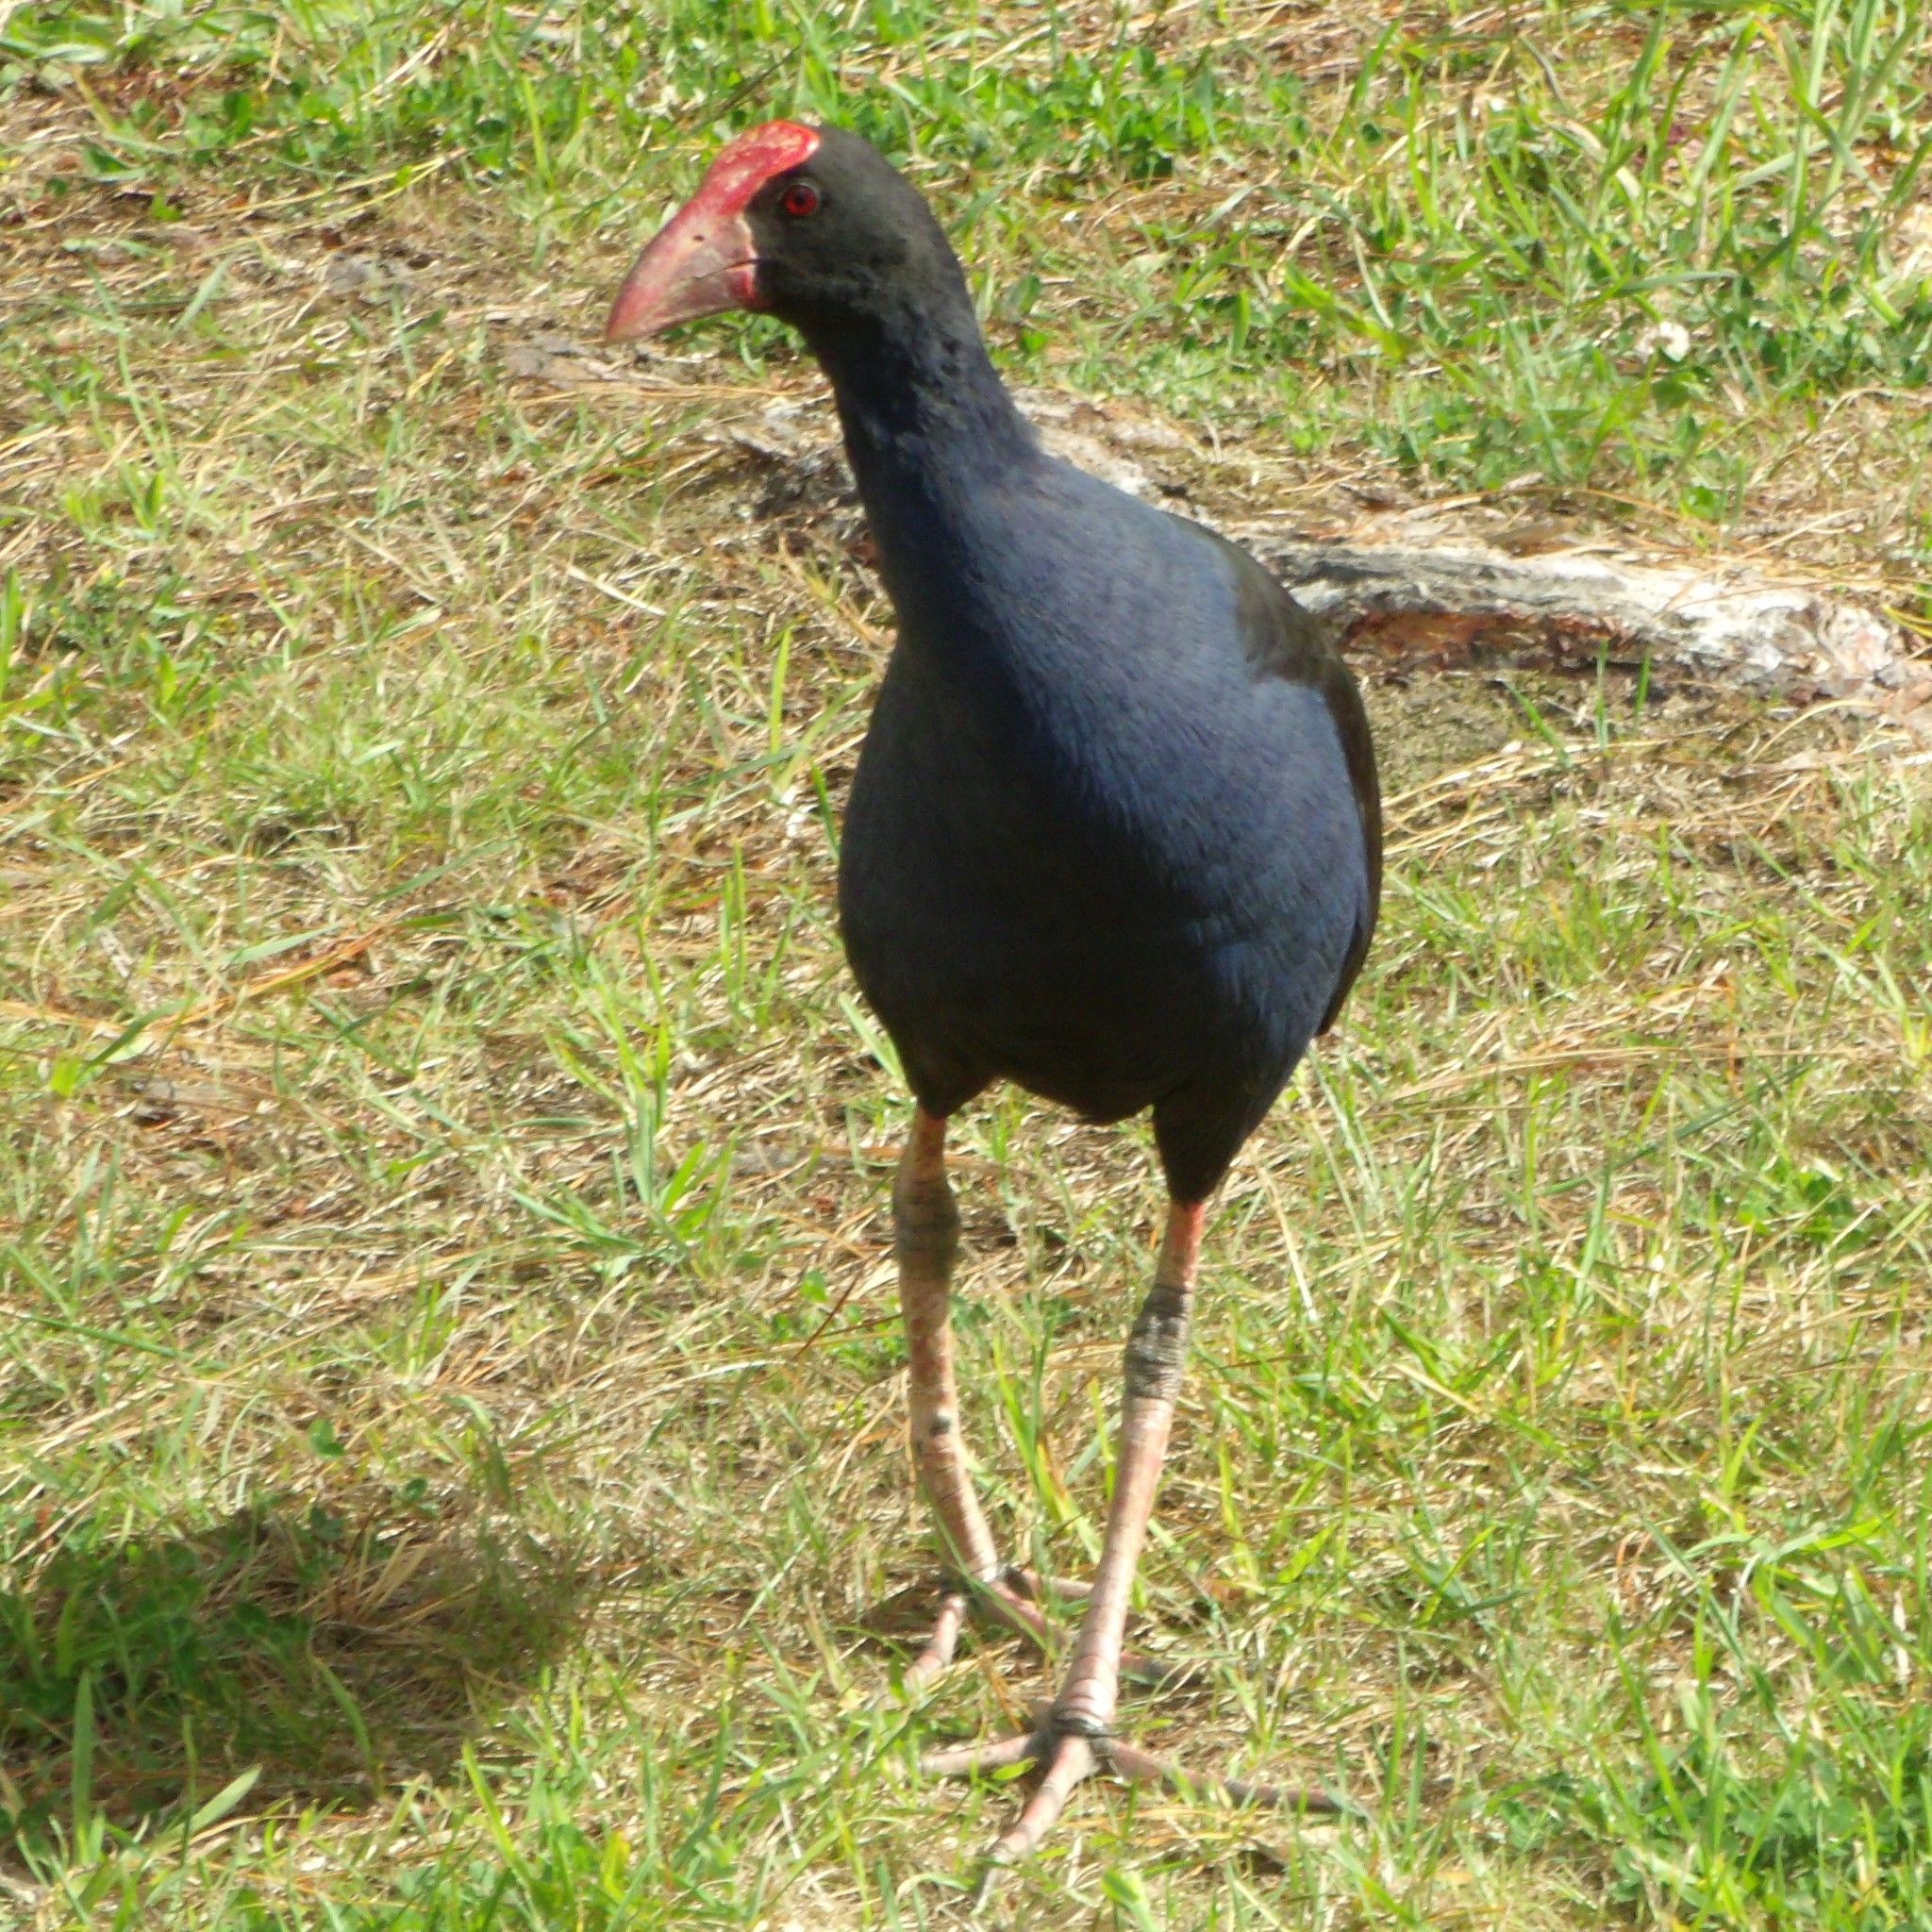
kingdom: Animalia
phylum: Chordata
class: Aves
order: Gruiformes
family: Rallidae
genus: Porphyrio
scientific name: Porphyrio melanotus
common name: Australasian swamphen
